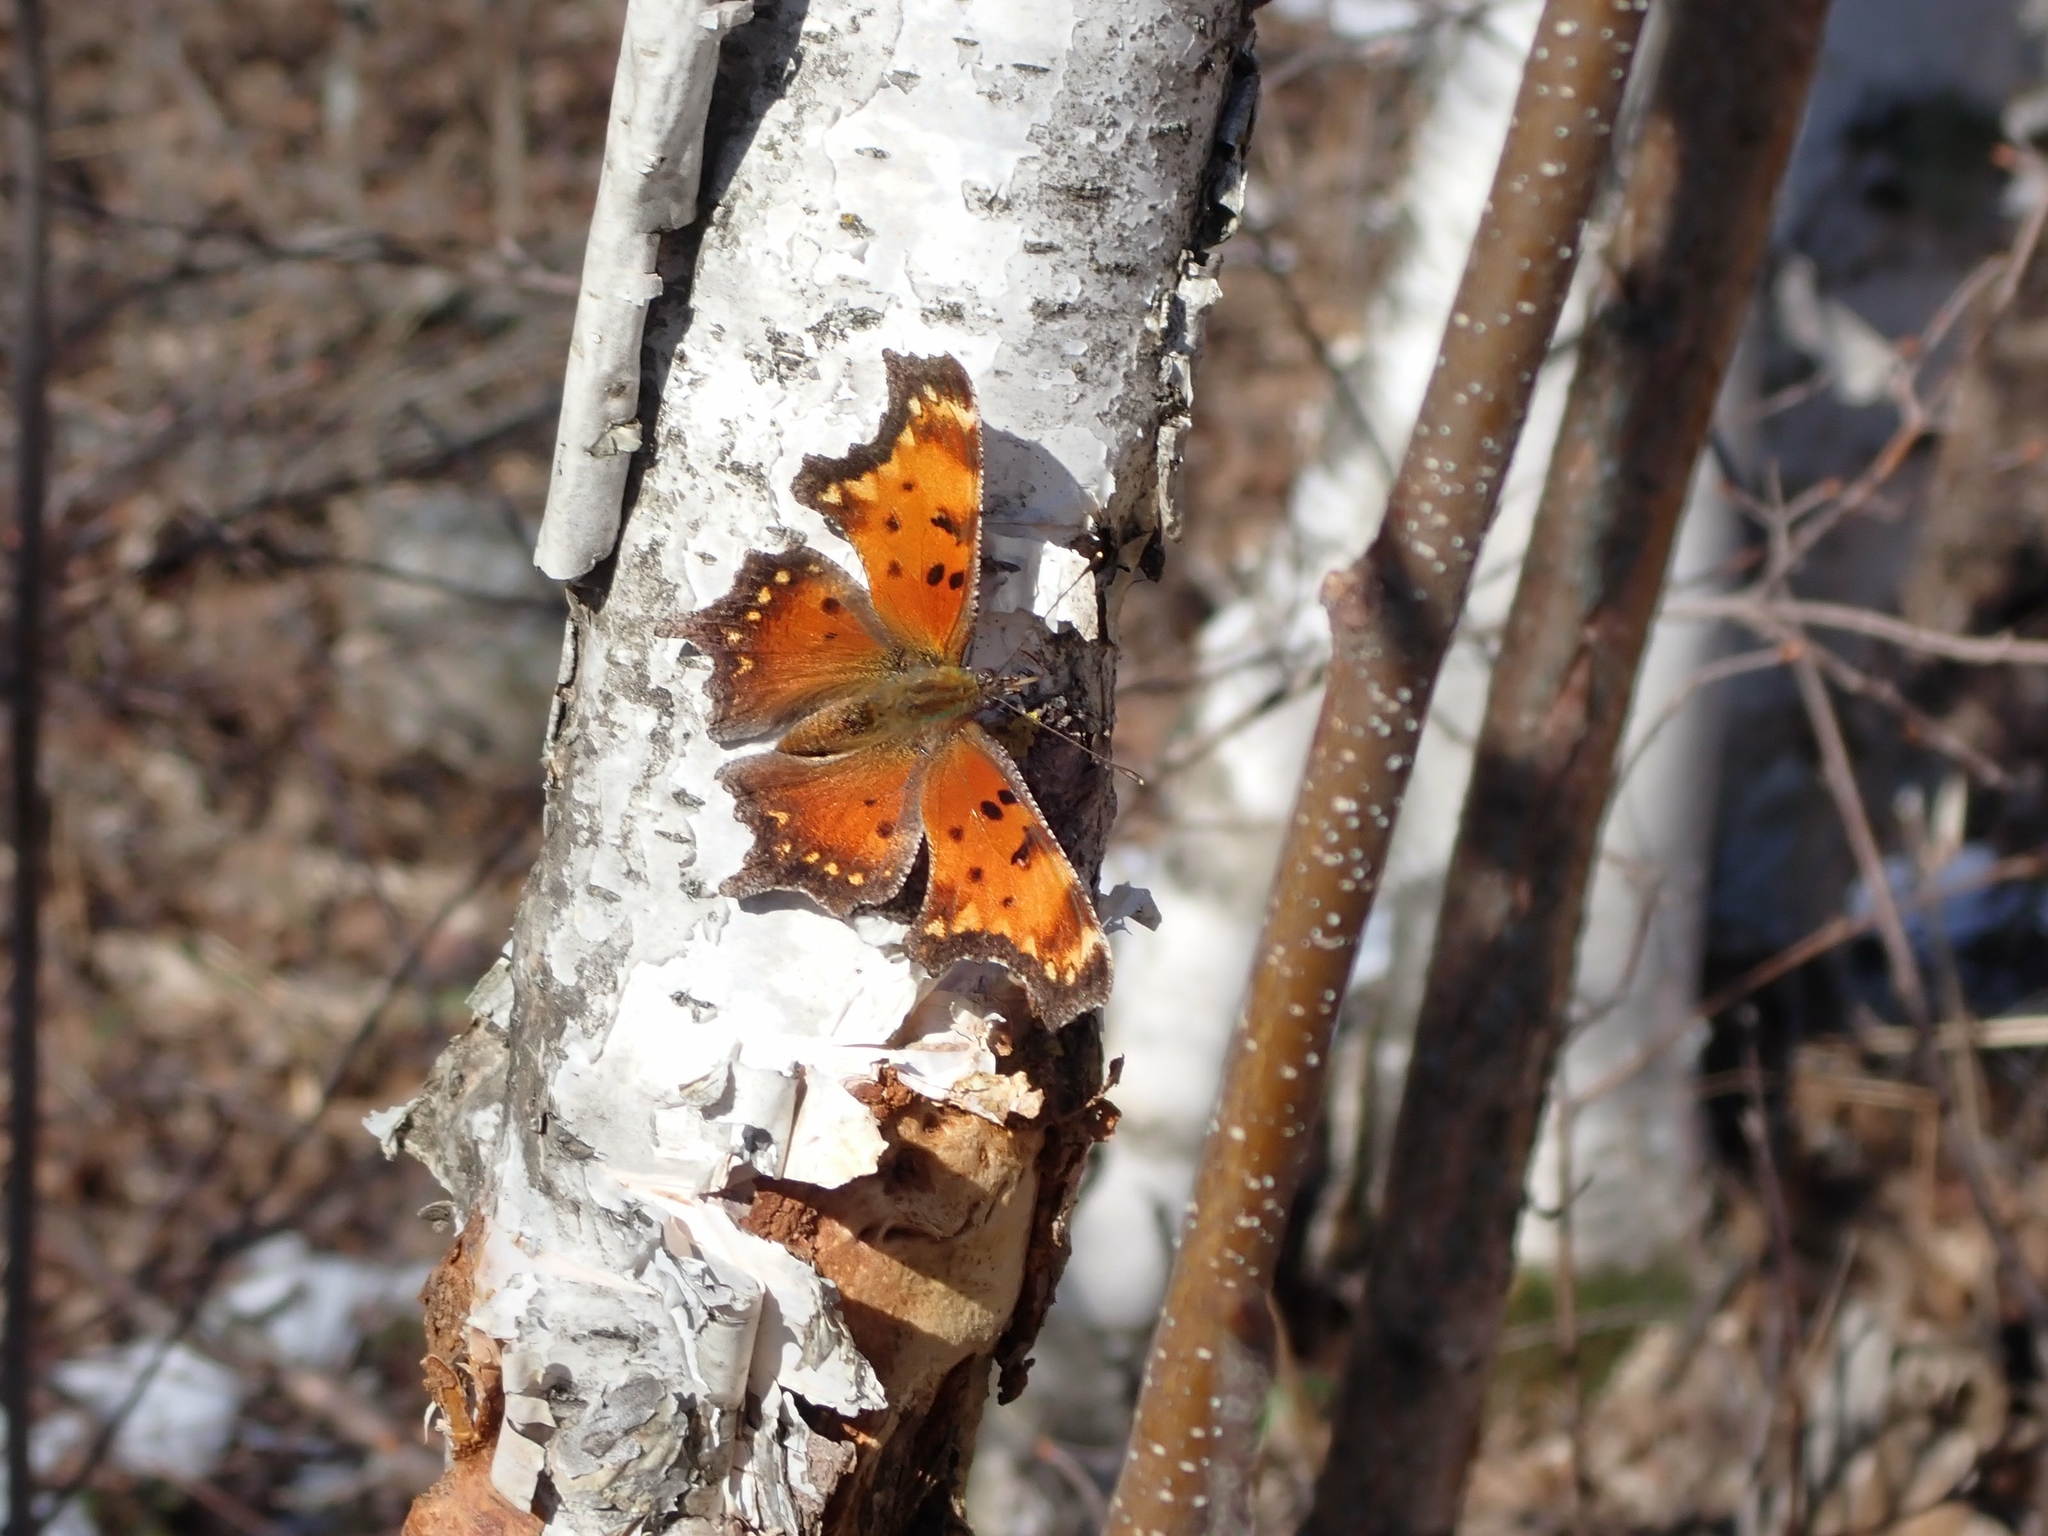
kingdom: Animalia
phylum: Arthropoda
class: Insecta
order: Lepidoptera
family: Nymphalidae
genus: Polygonia
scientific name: Polygonia progne
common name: Gray comma
